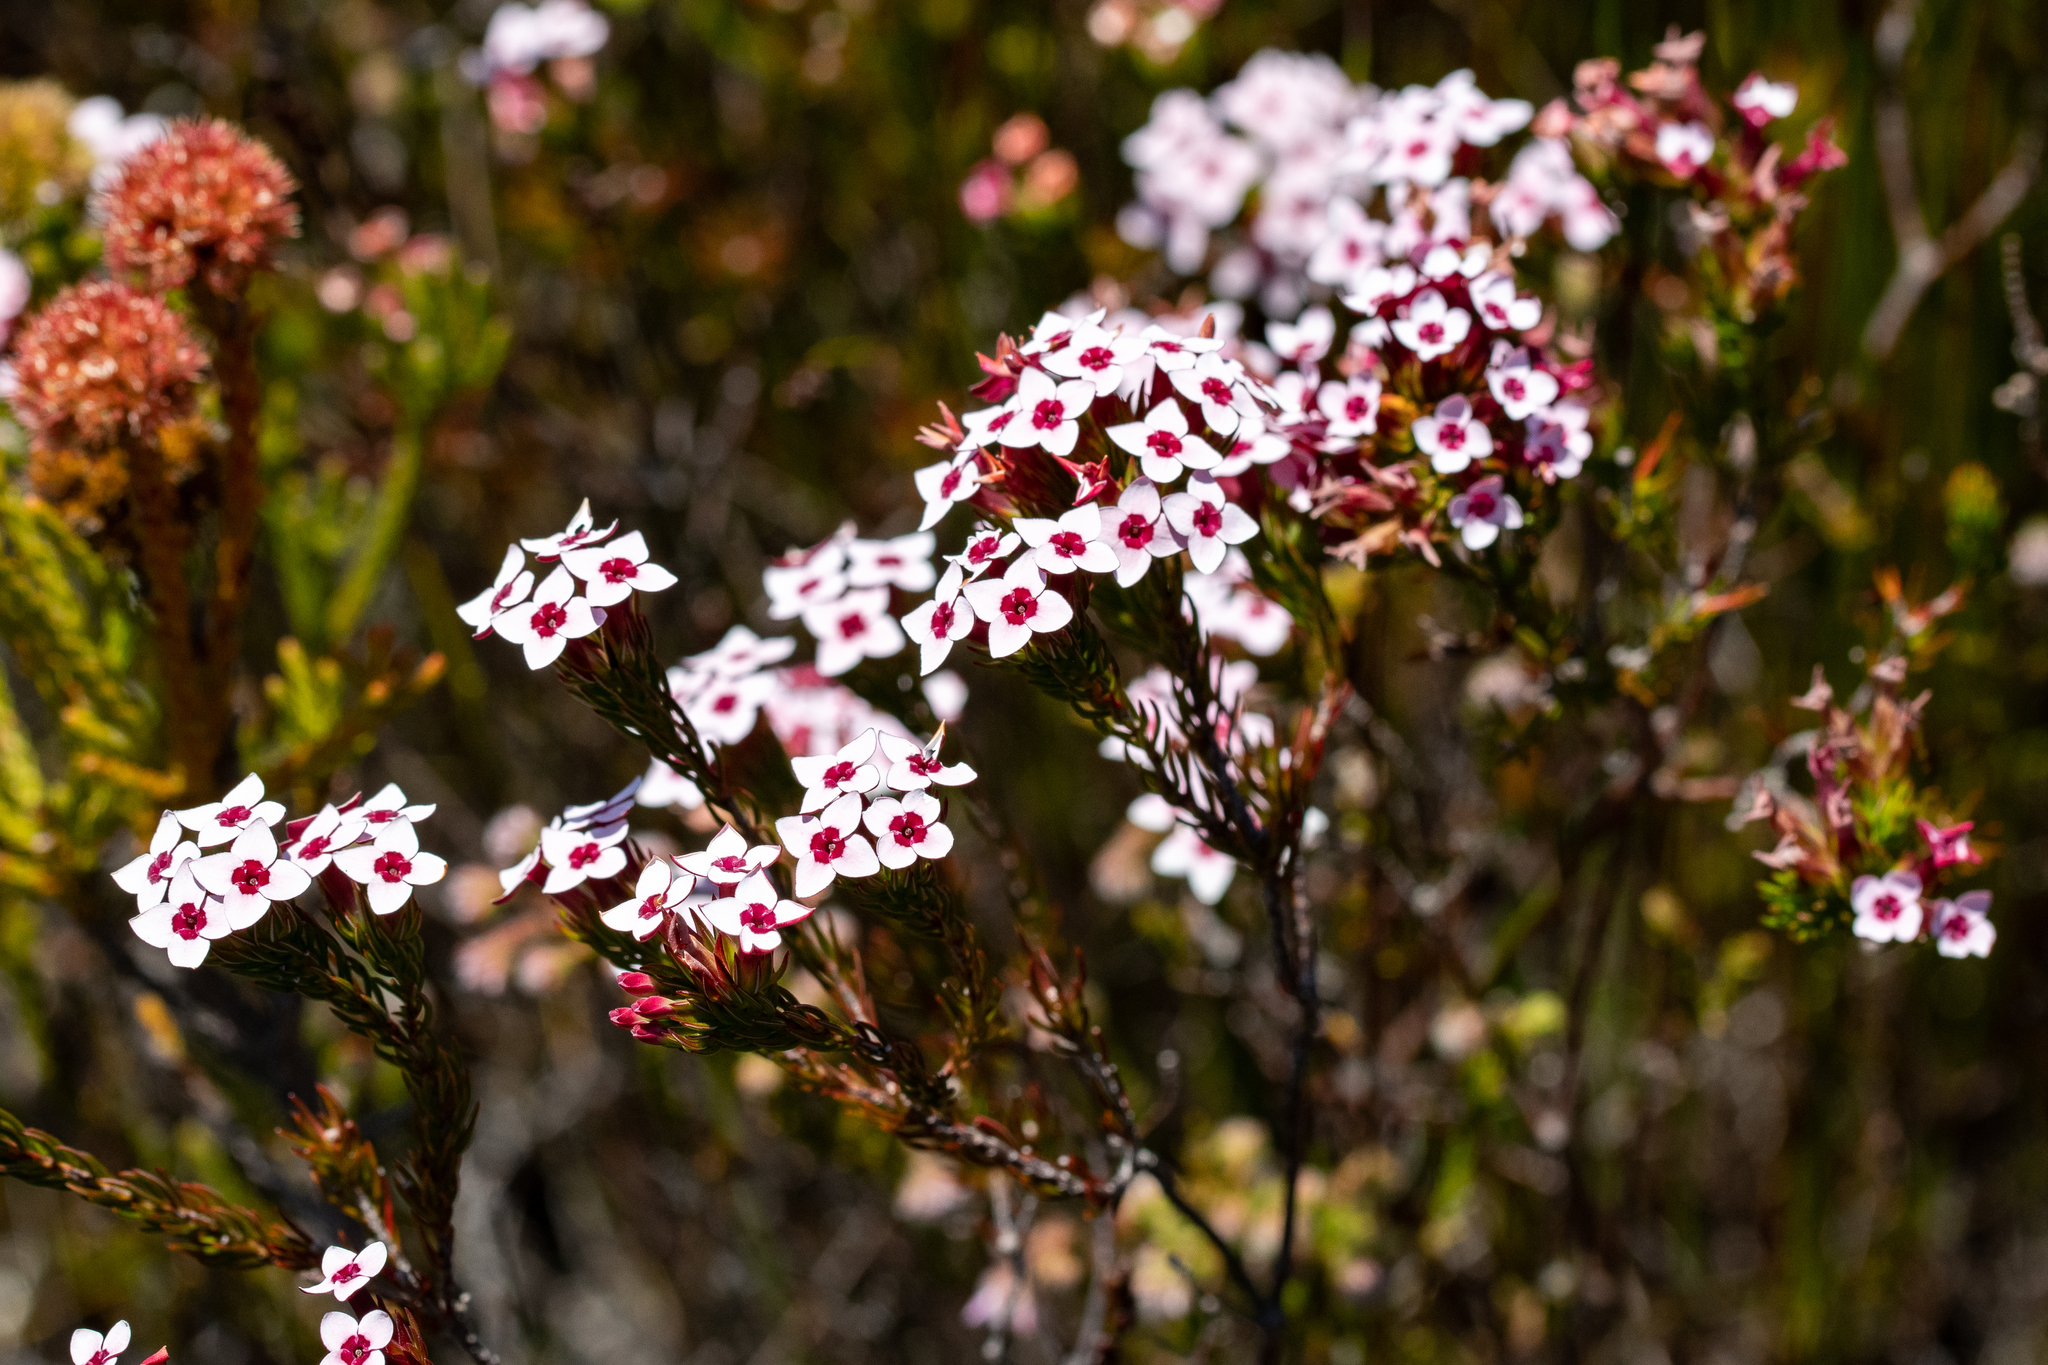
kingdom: Plantae
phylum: Tracheophyta
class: Magnoliopsida
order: Ericales
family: Ericaceae
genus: Erica
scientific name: Erica fastigiata
